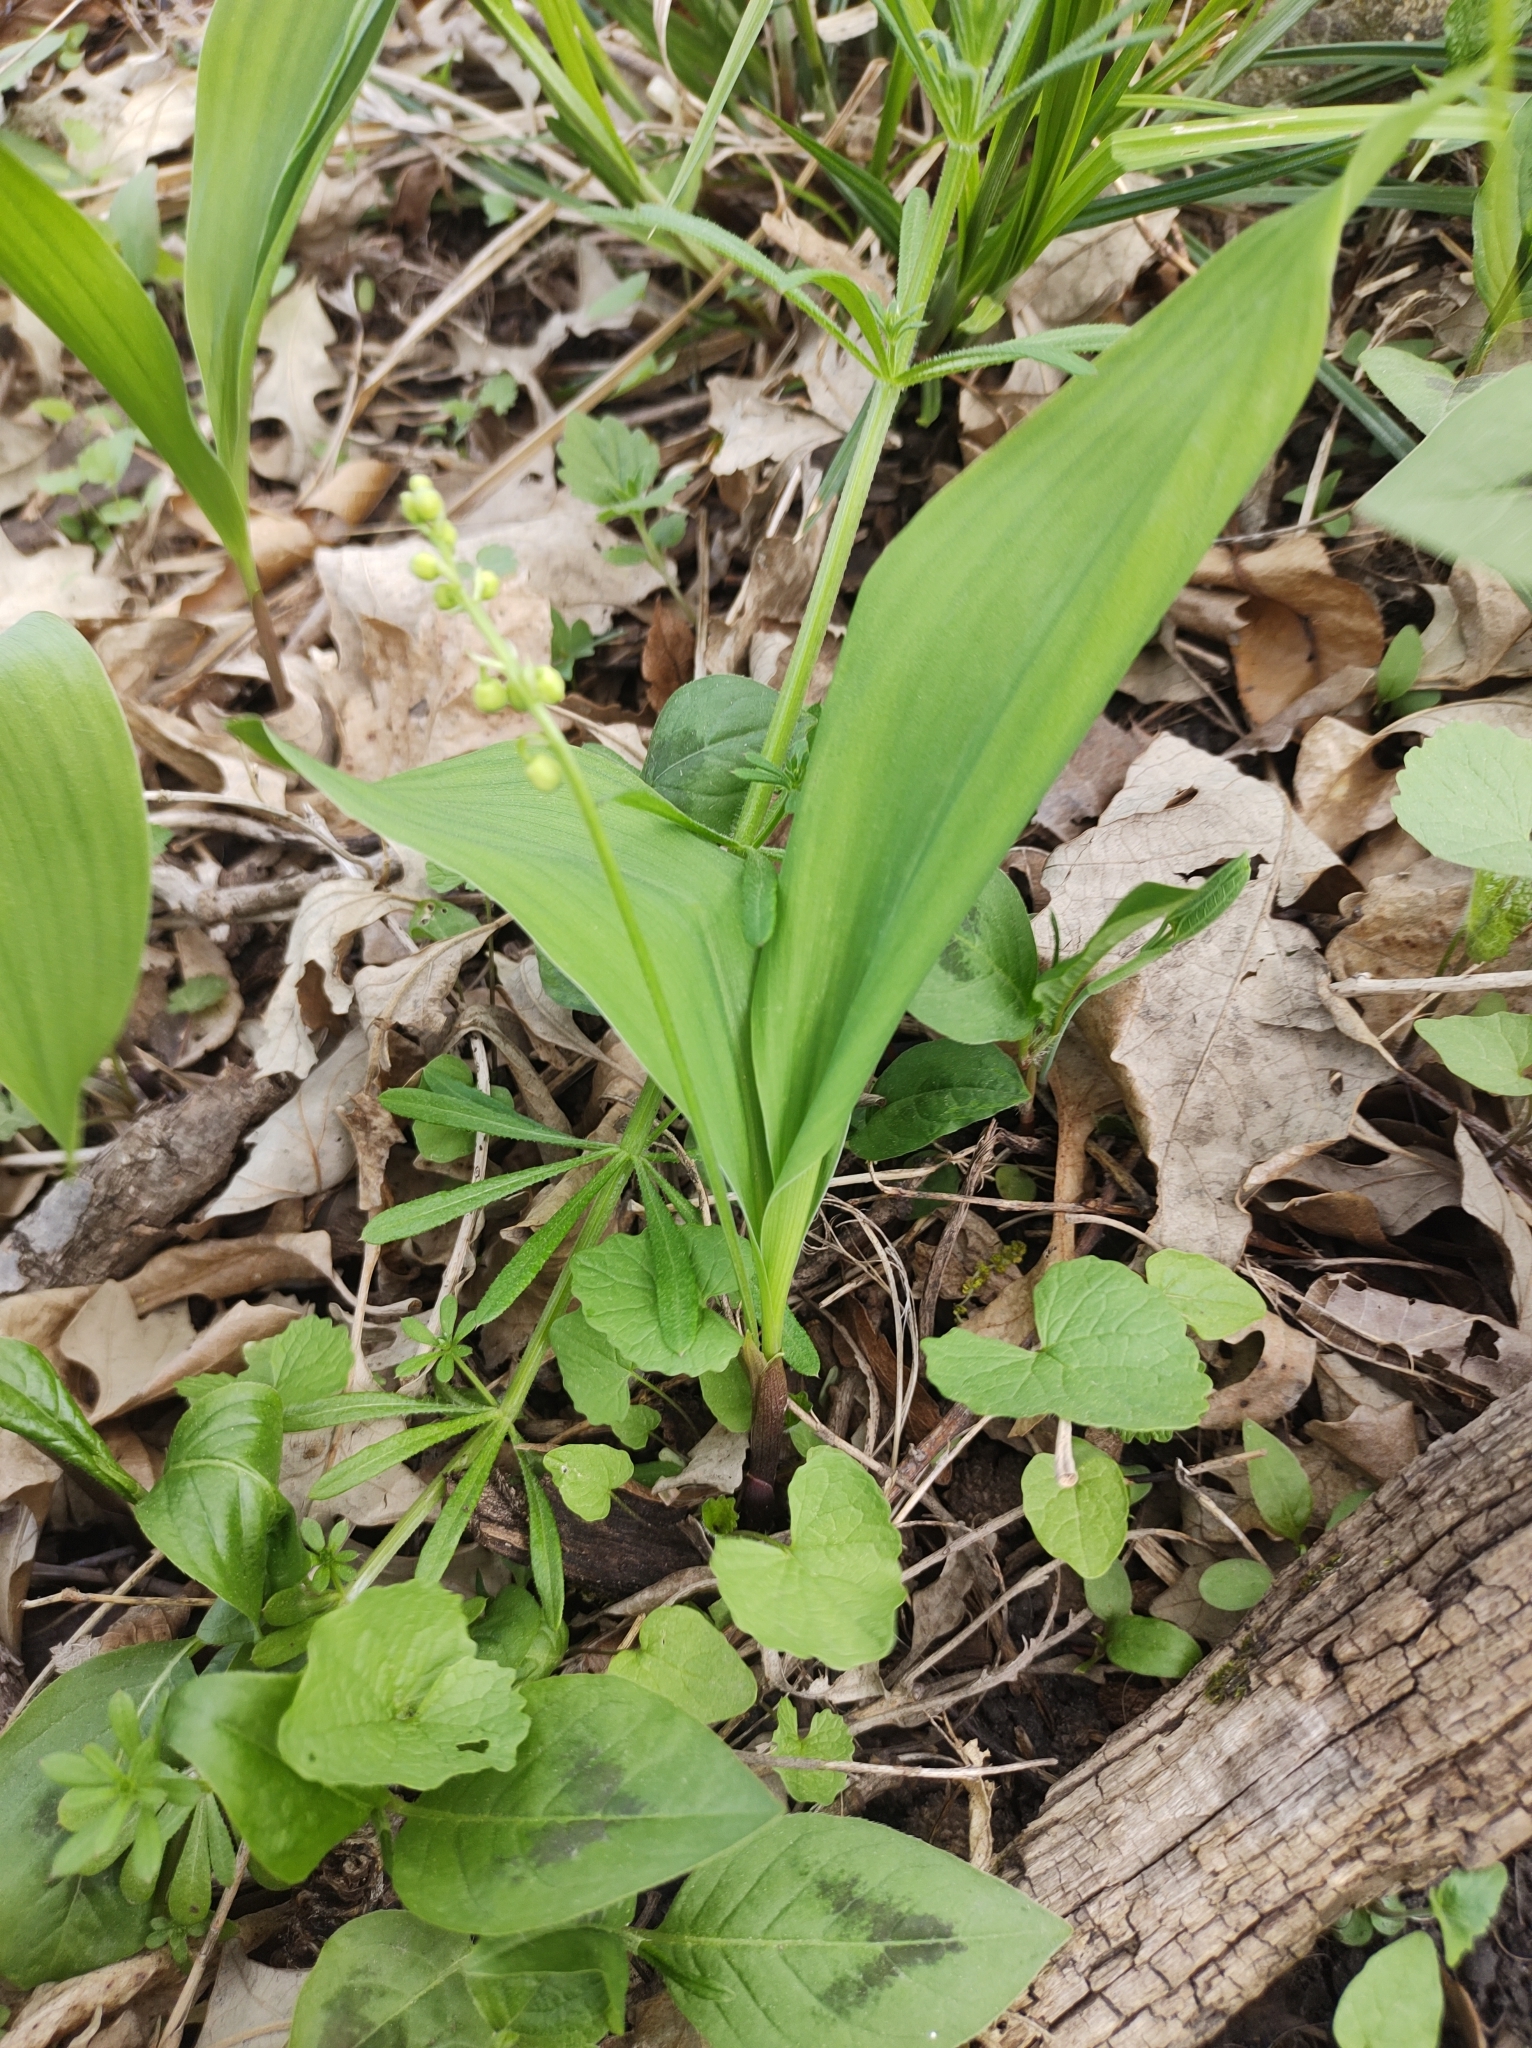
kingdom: Plantae
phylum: Tracheophyta
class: Liliopsida
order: Asparagales
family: Asparagaceae
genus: Convallaria
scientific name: Convallaria majalis
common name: Lily-of-the-valley
